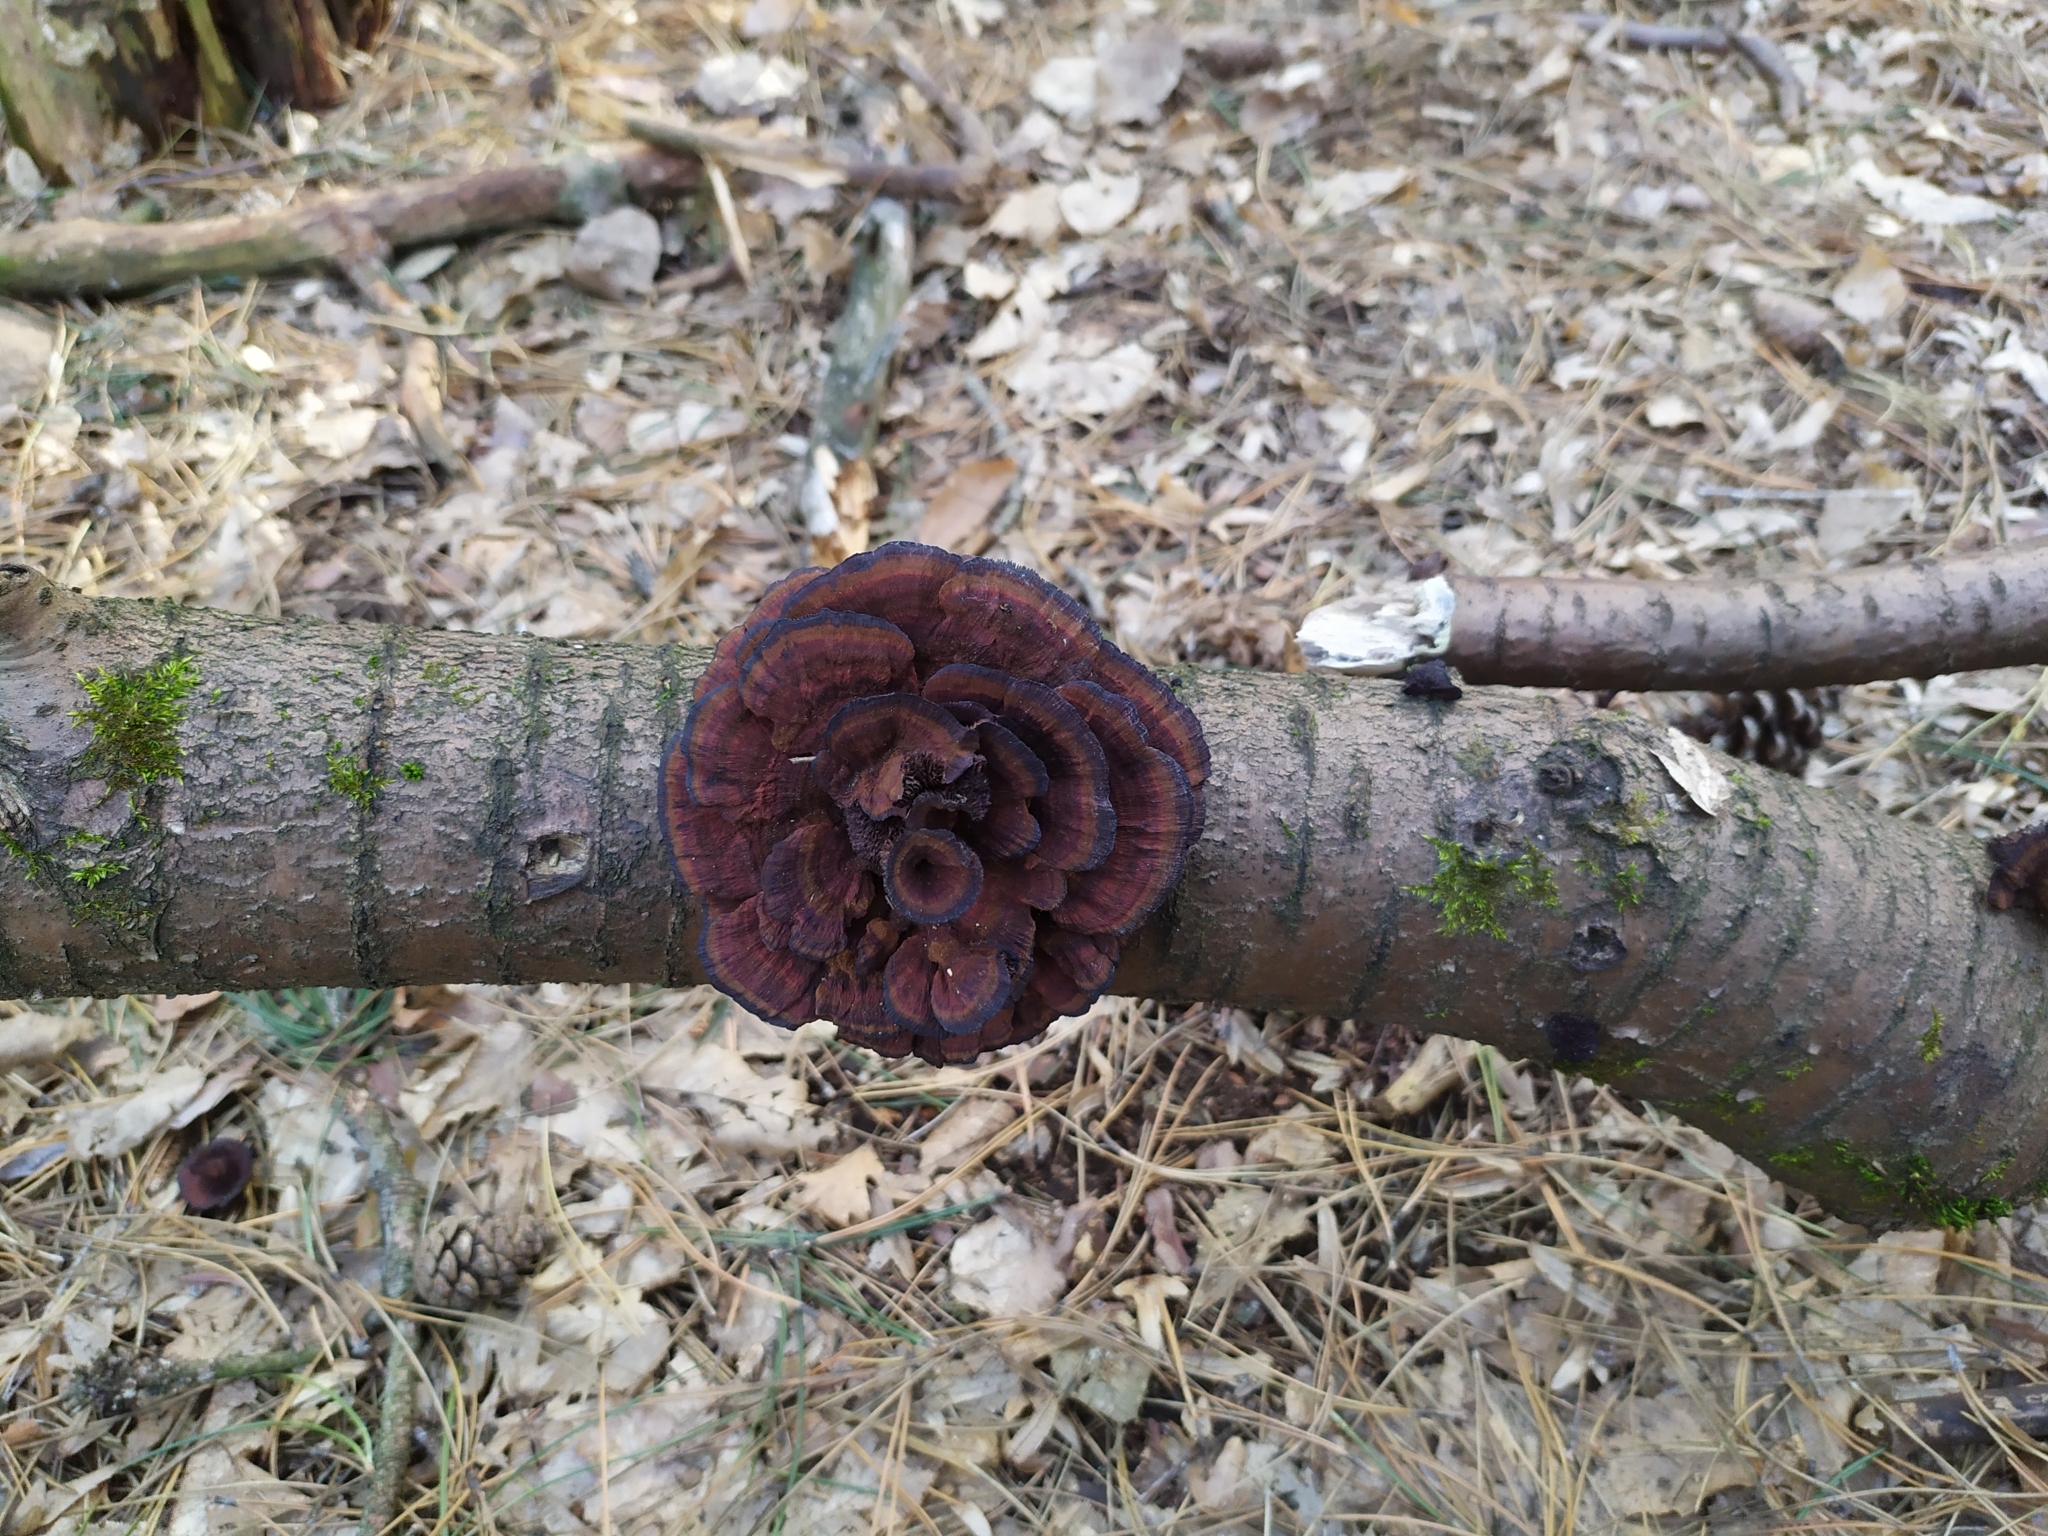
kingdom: Fungi
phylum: Basidiomycota
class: Agaricomycetes
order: Polyporales
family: Polyporaceae
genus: Daedaleopsis
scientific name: Daedaleopsis tricolor
